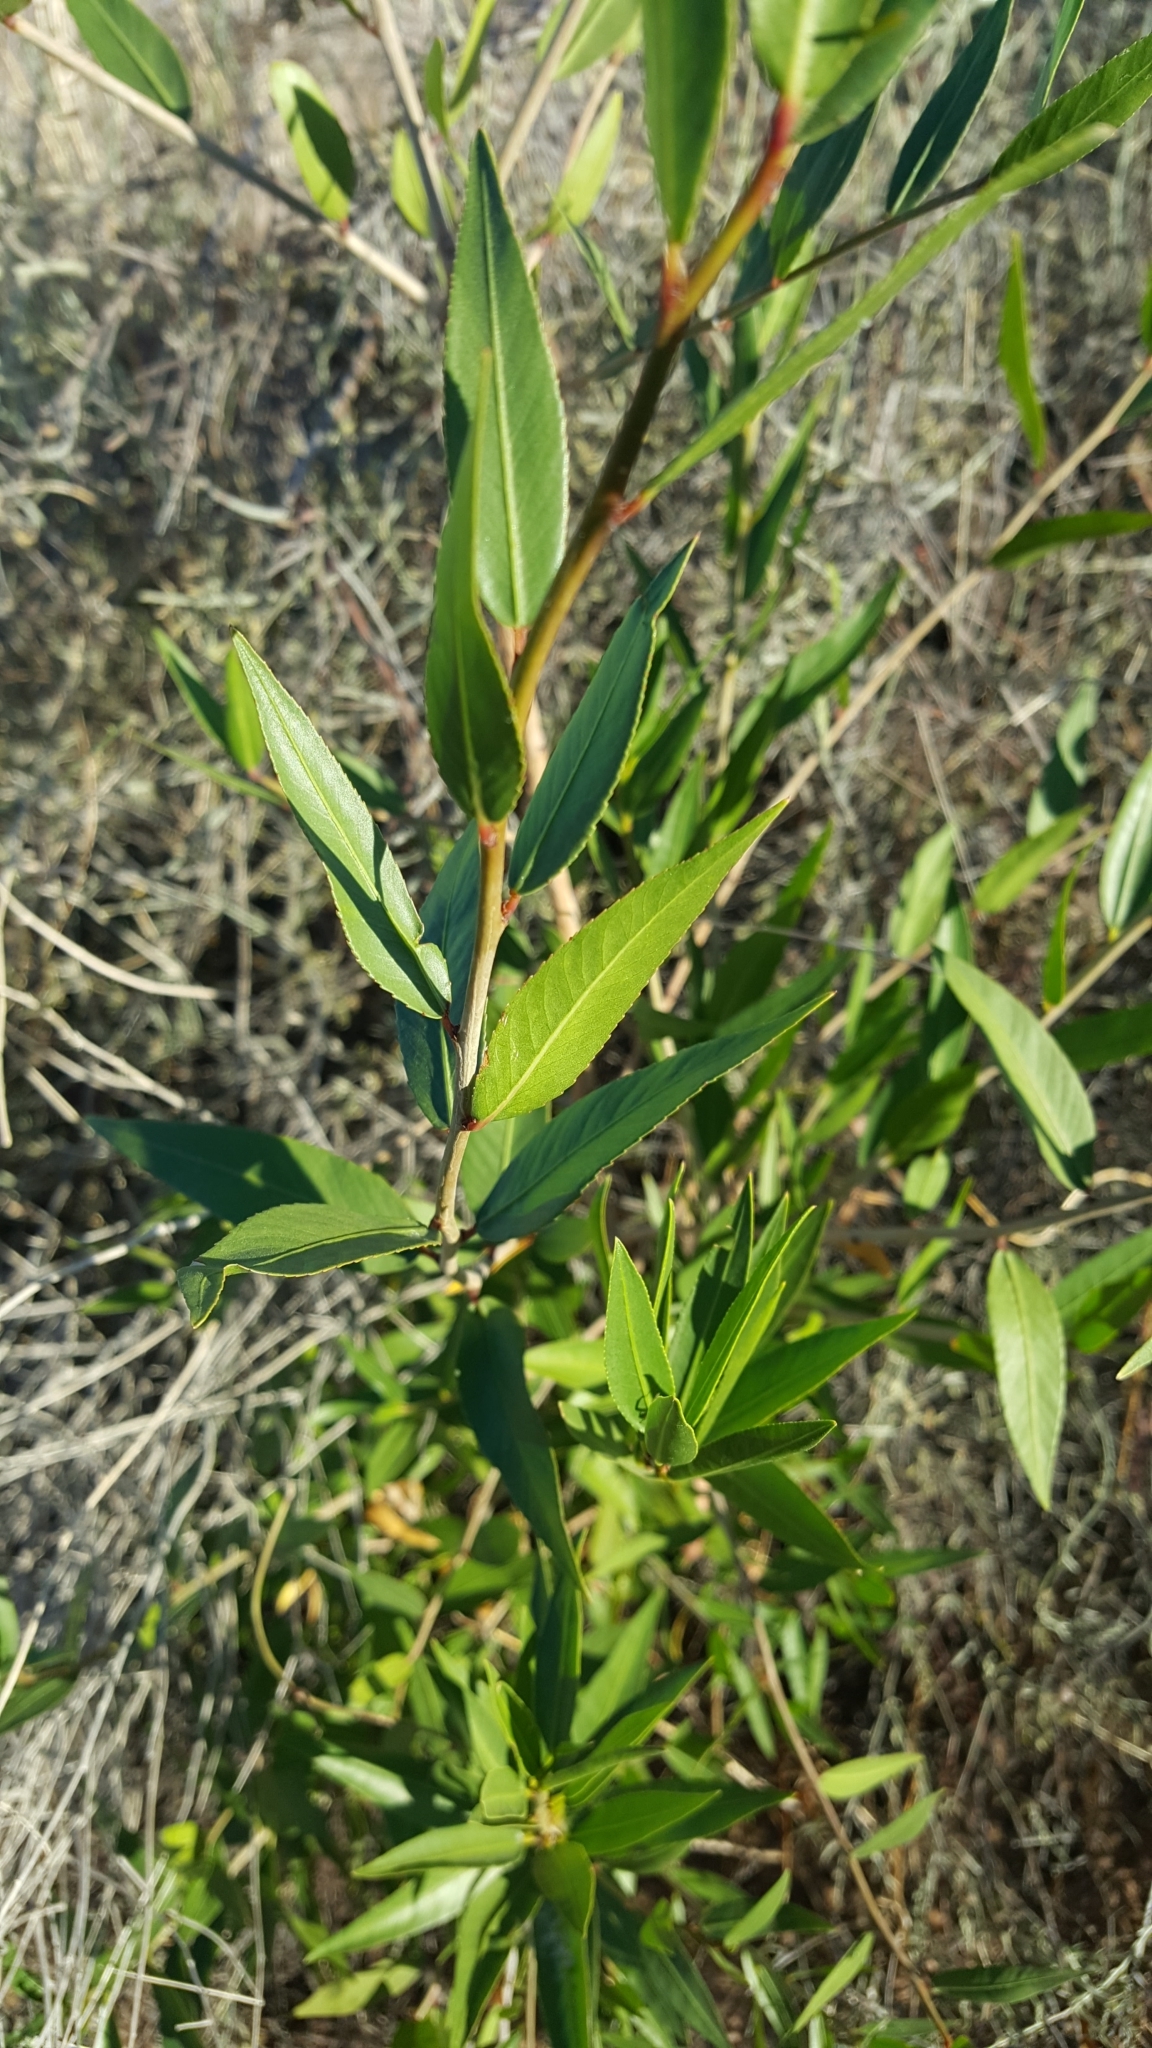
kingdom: Plantae
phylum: Tracheophyta
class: Magnoliopsida
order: Malpighiales
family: Salicaceae
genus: Salix
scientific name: Salix gooddingii
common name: Goodding's willow
